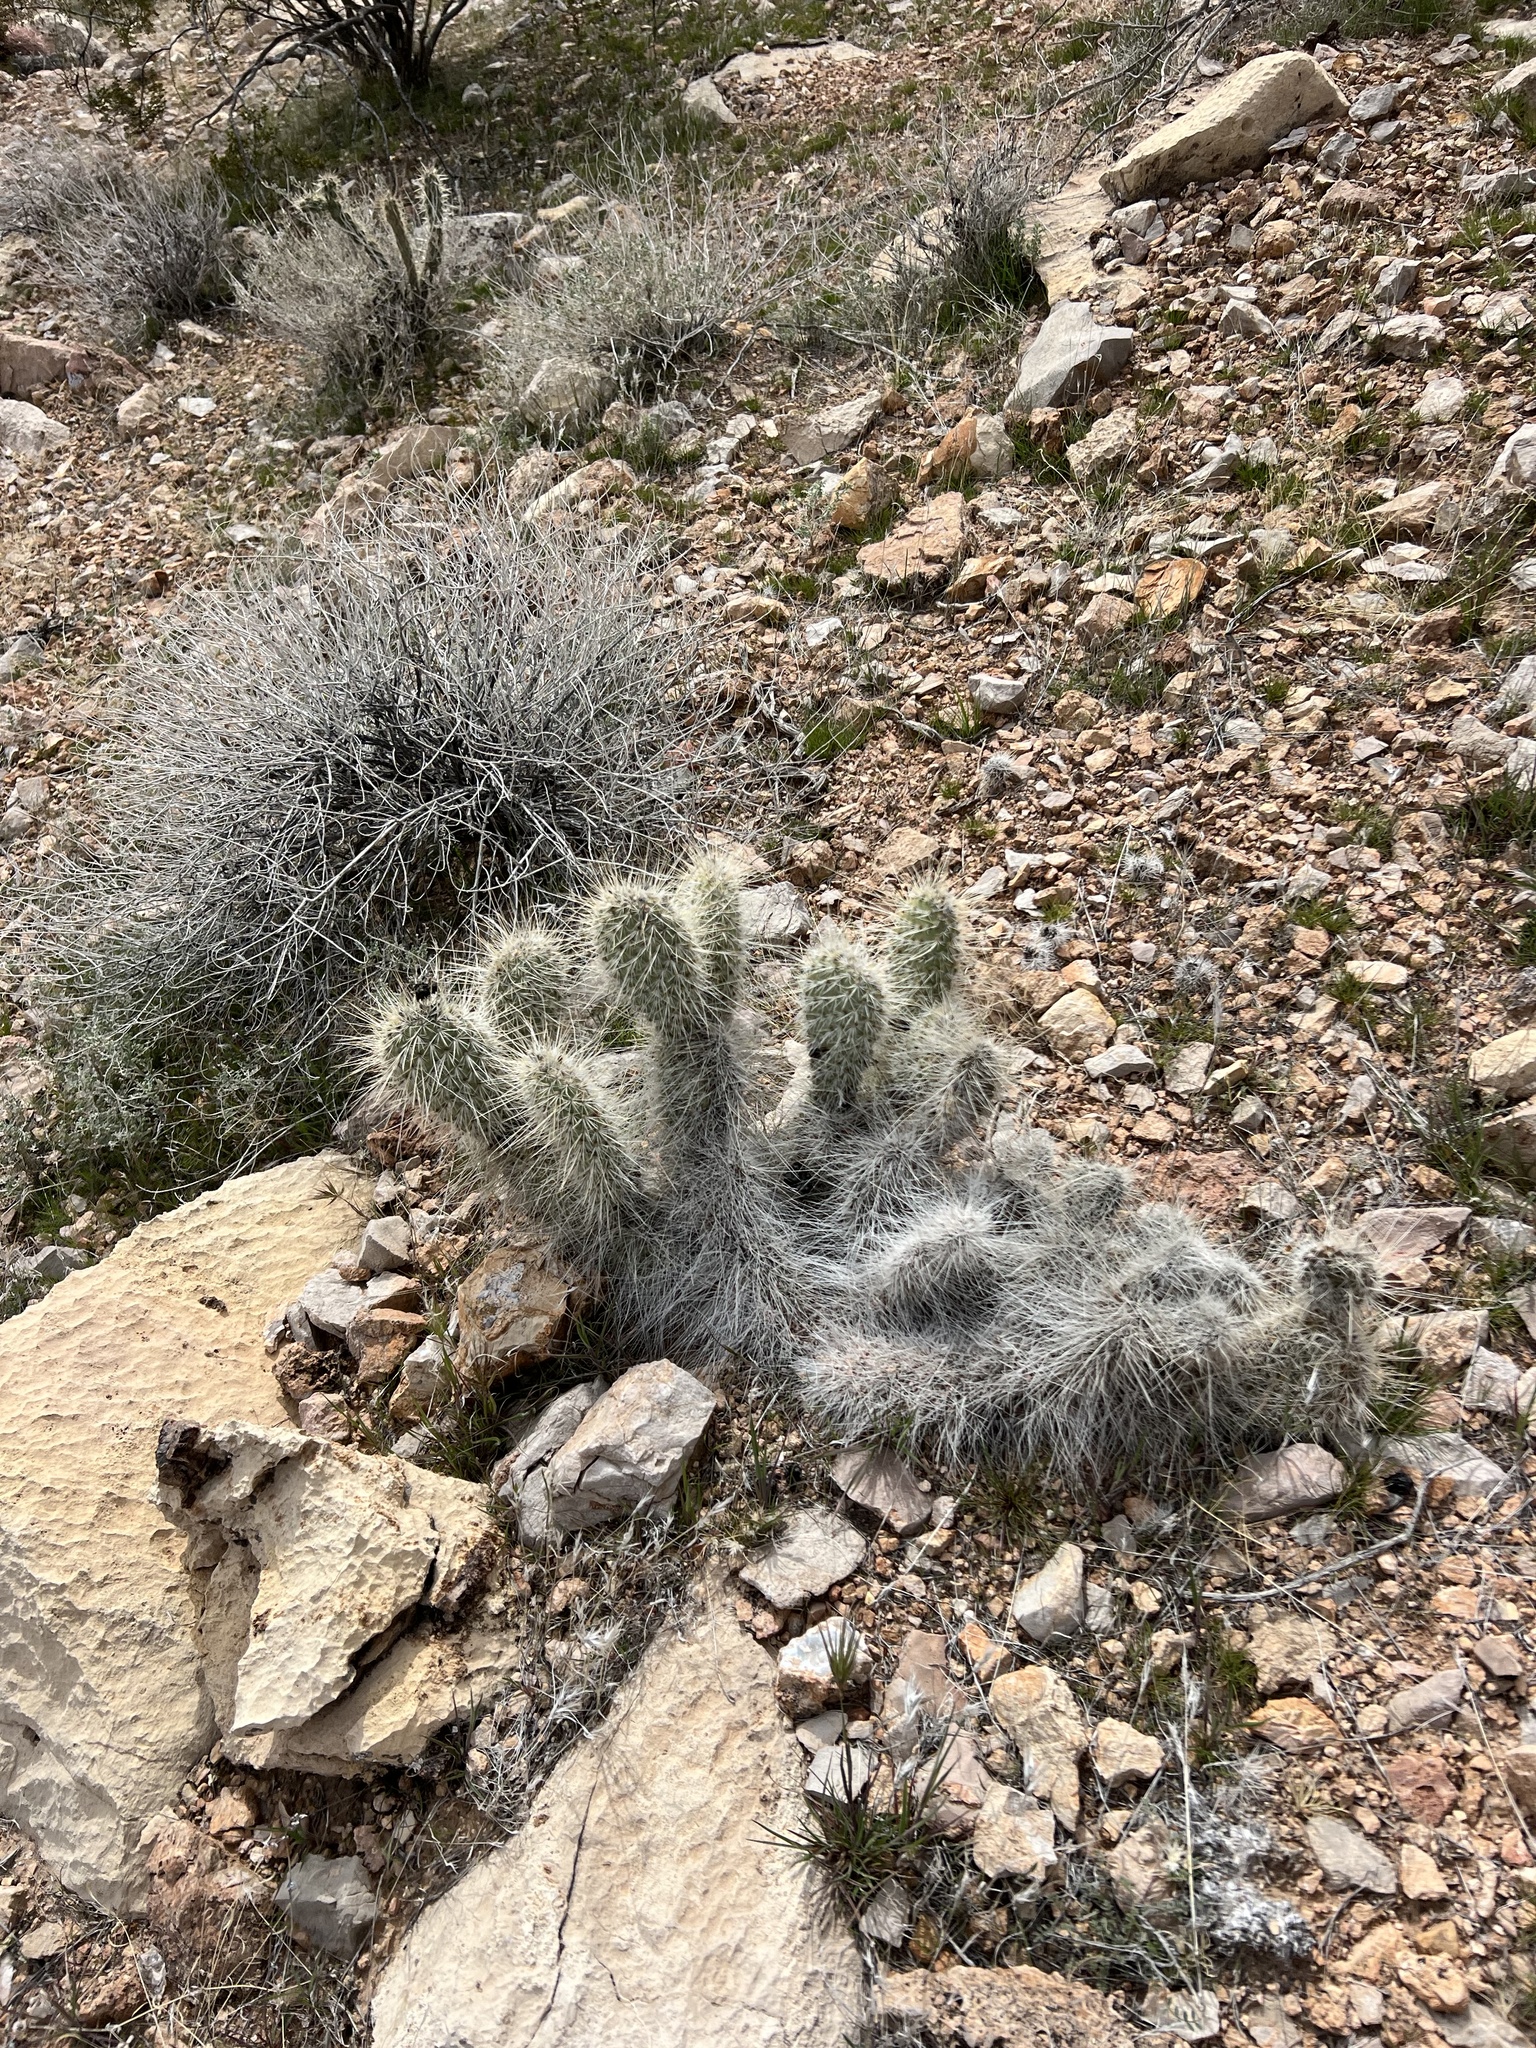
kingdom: Plantae
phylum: Tracheophyta
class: Magnoliopsida
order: Caryophyllales
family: Cactaceae
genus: Opuntia
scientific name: Opuntia polyacantha
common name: Plains prickly-pear
